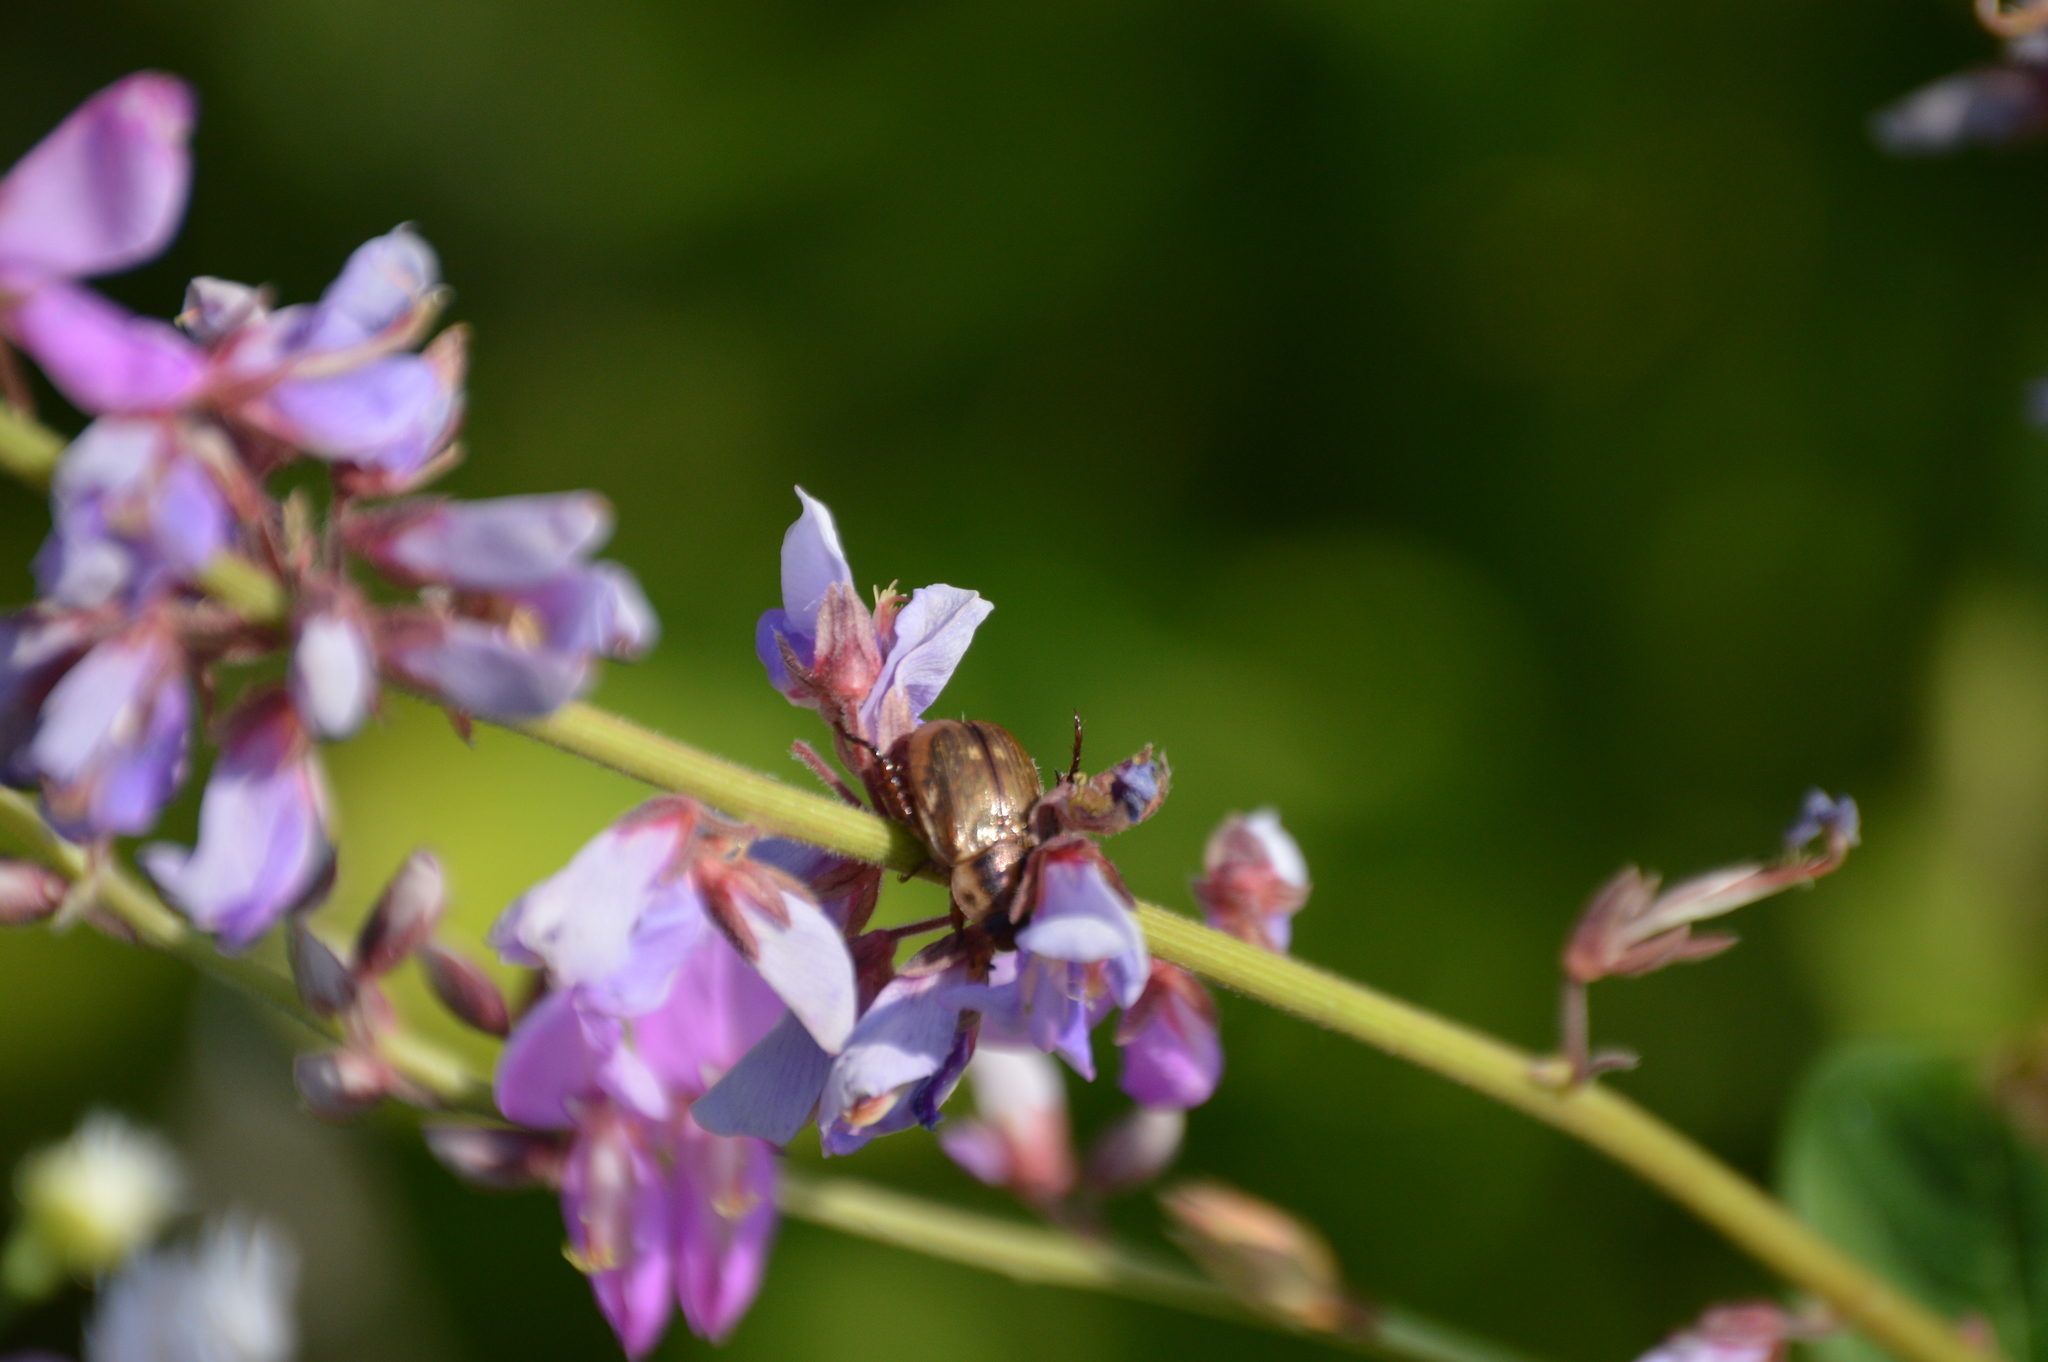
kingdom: Animalia
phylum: Arthropoda
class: Insecta
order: Coleoptera
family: Scarabaeidae
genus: Exomala
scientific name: Exomala orientalis
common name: Oriental beetle
